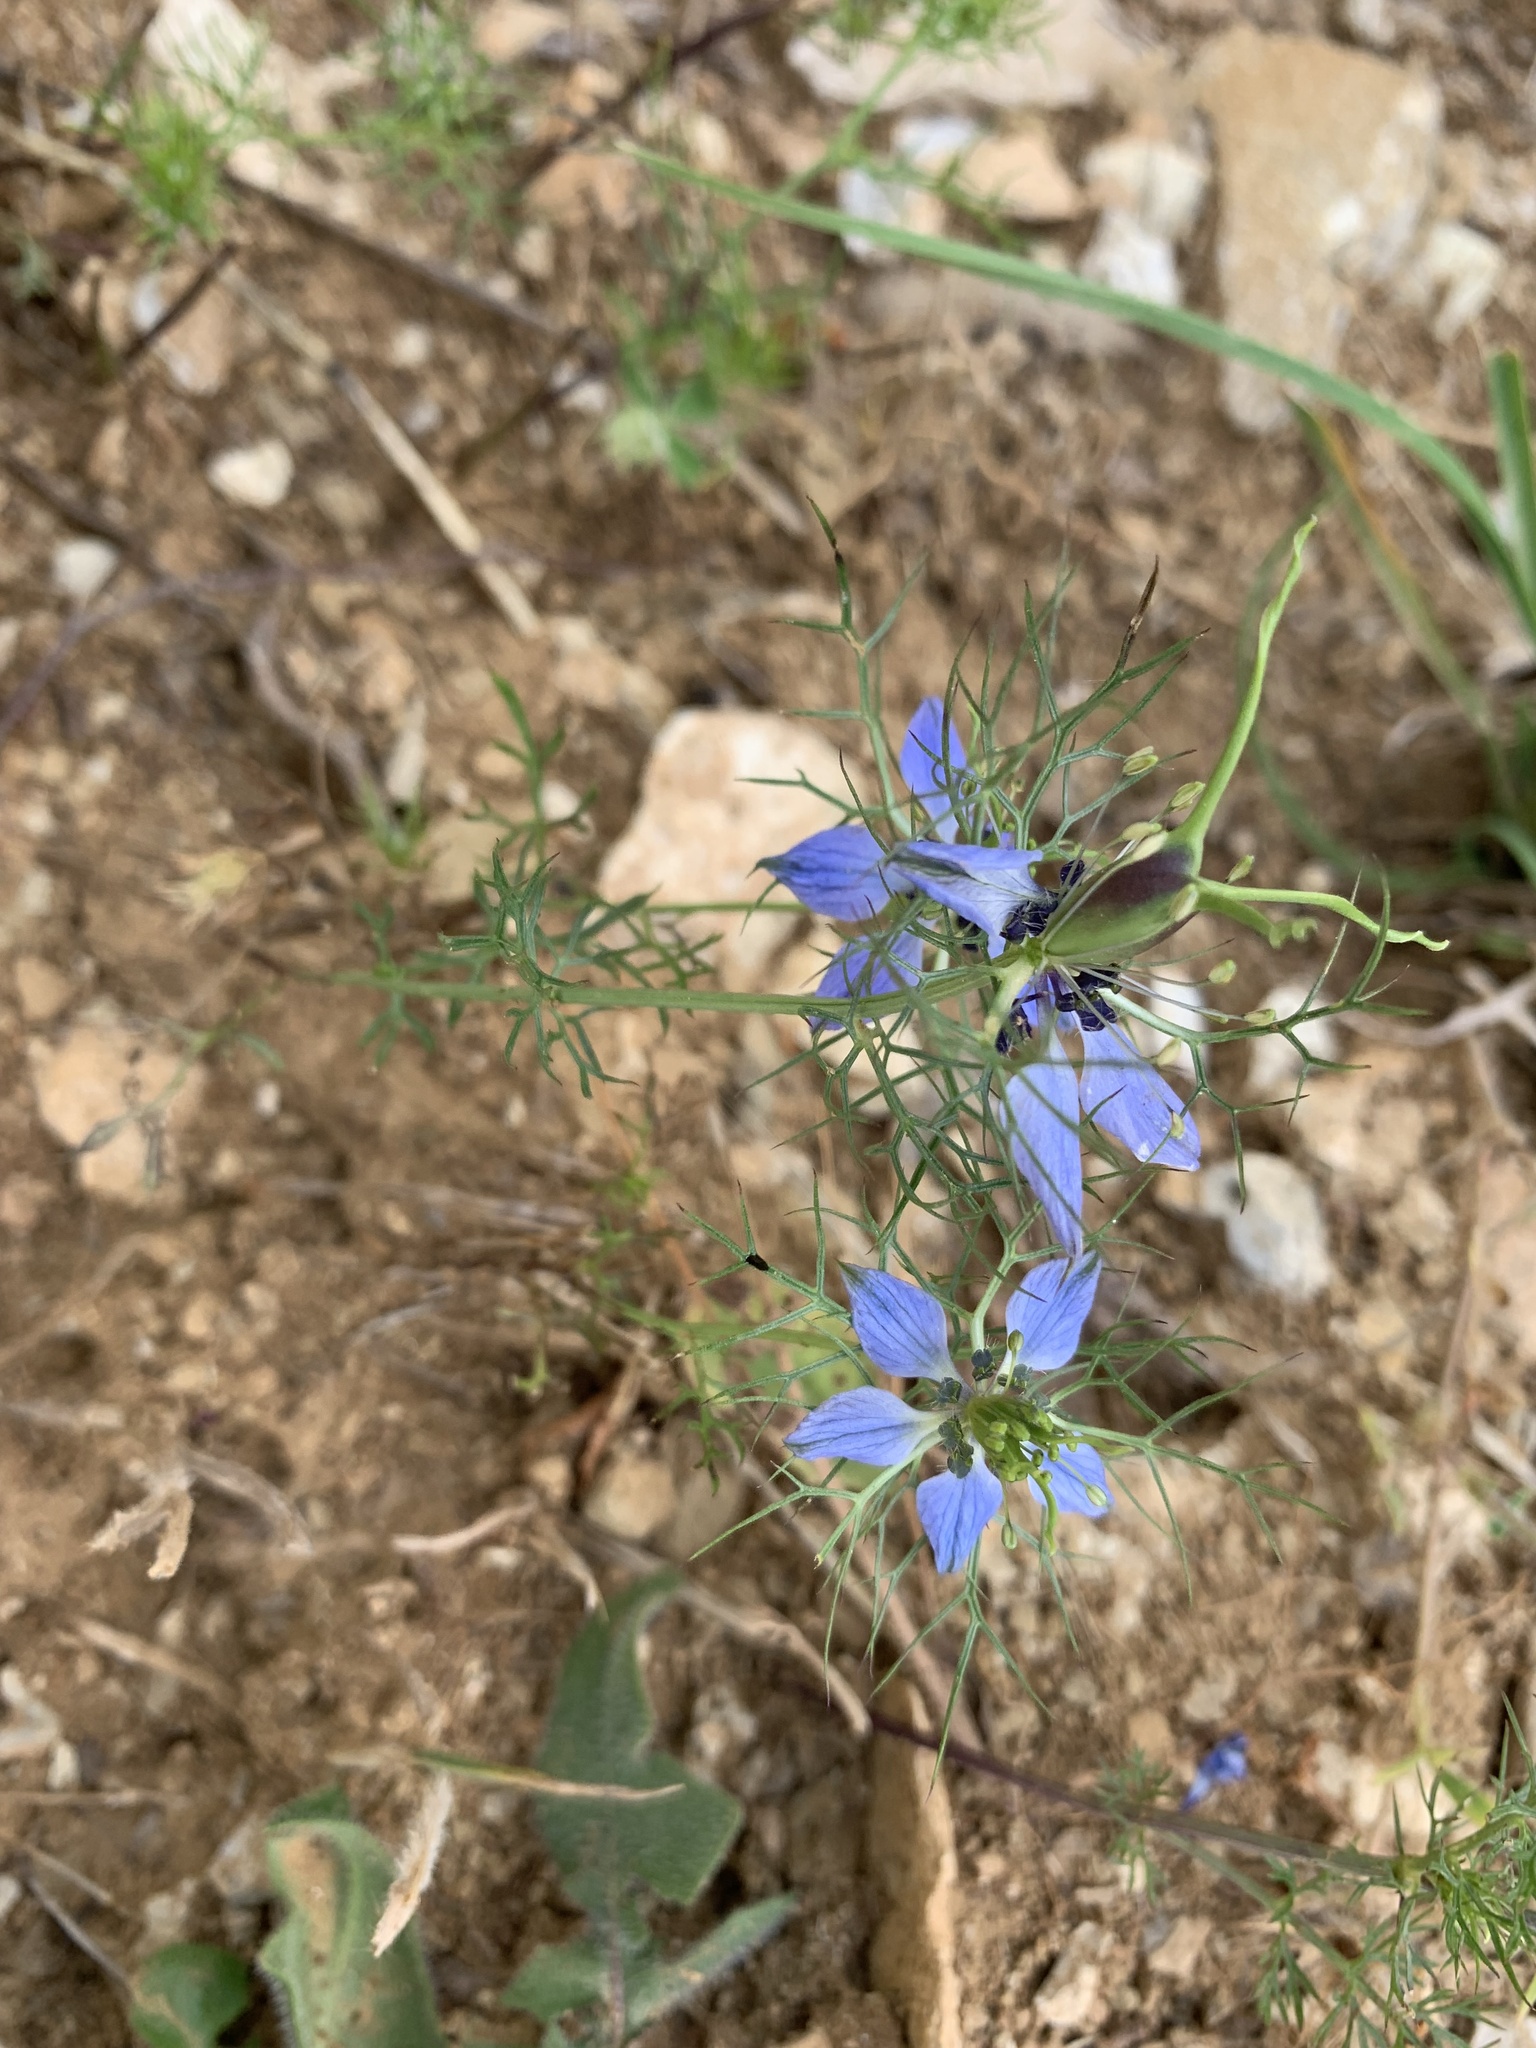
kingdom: Plantae
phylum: Tracheophyta
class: Magnoliopsida
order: Ranunculales
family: Ranunculaceae
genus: Nigella
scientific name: Nigella damascena
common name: Love-in-a-mist
